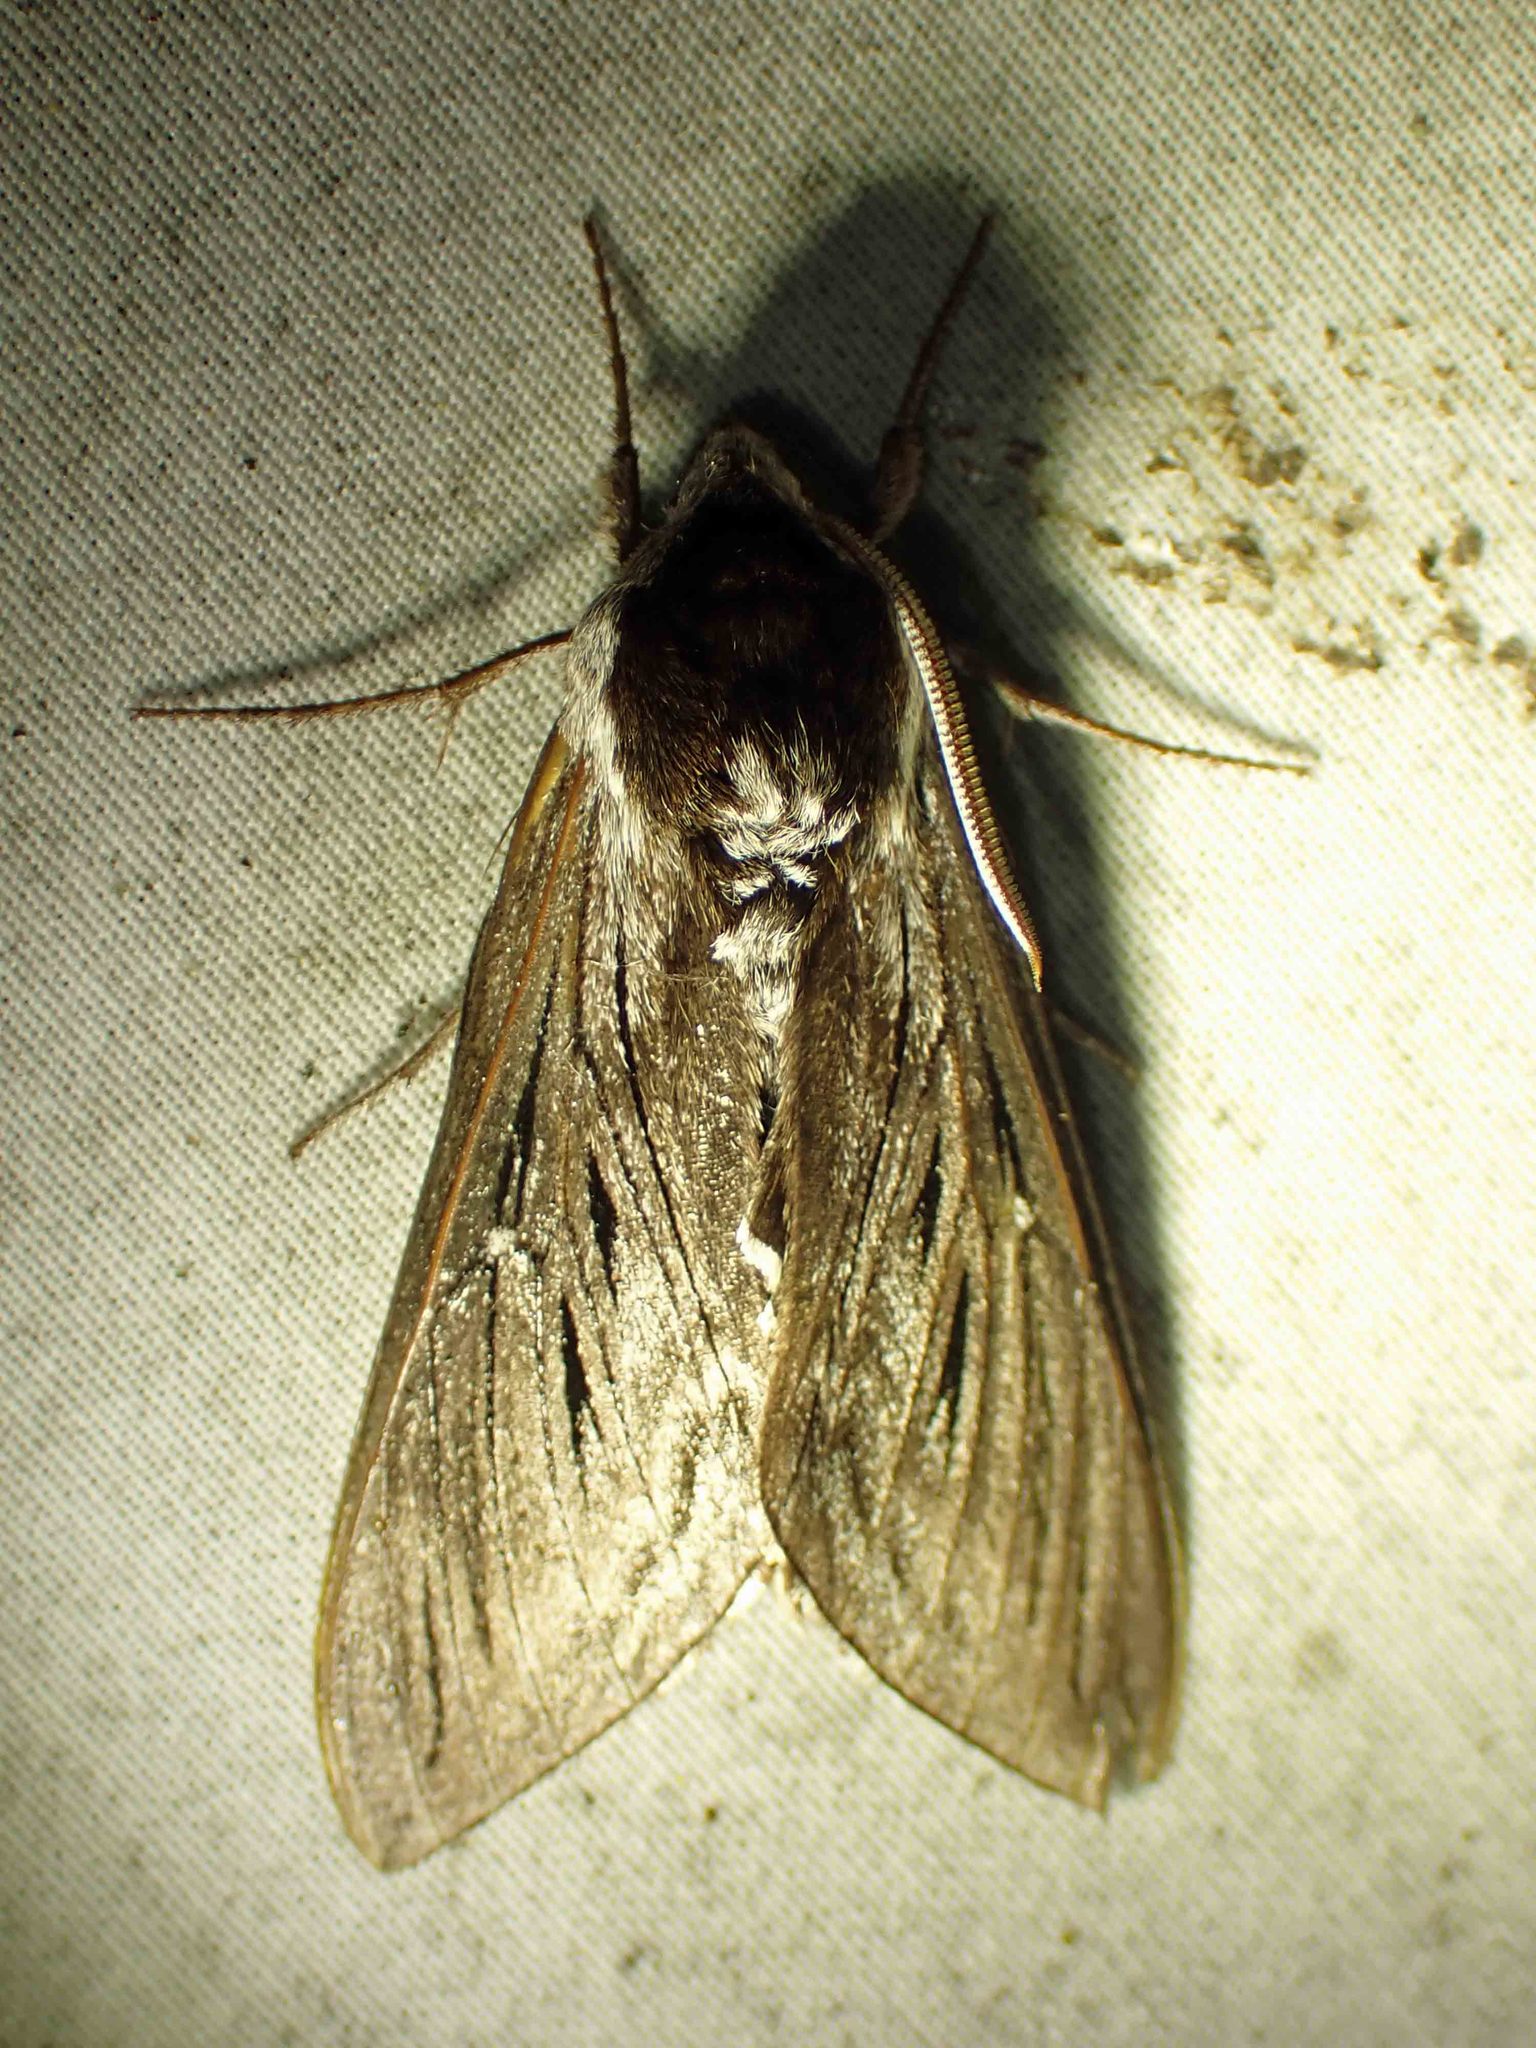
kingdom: Animalia
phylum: Arthropoda
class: Insecta
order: Lepidoptera
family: Sphingidae
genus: Sphinx
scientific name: Sphinx poecila
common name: Northern apple sphinx
